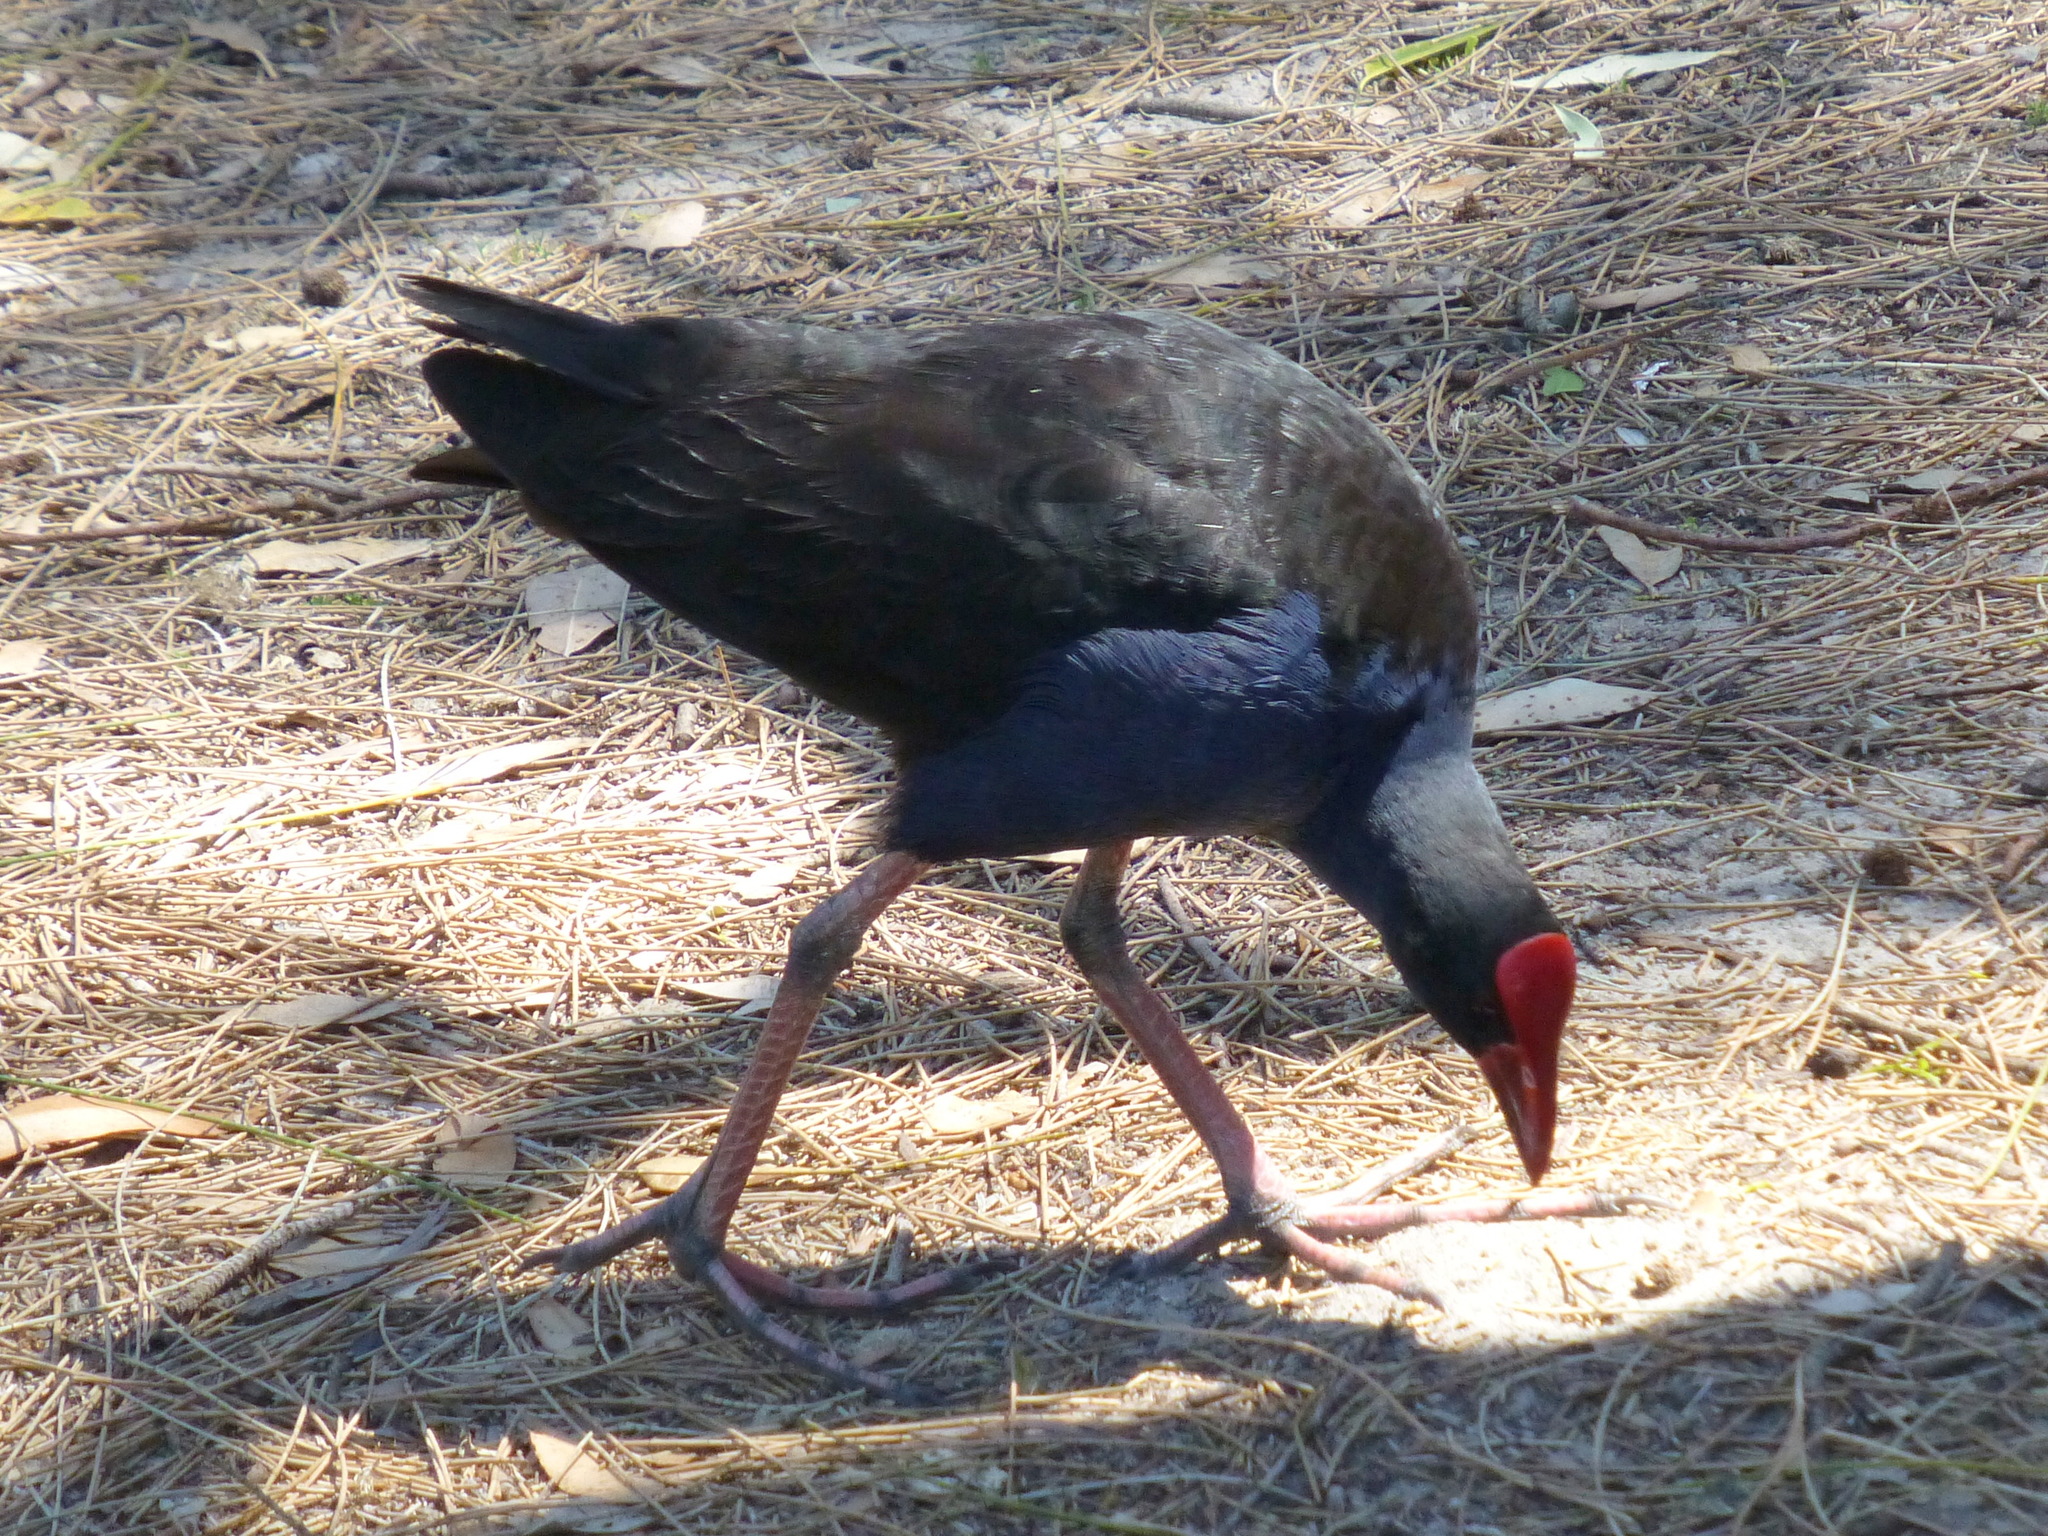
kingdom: Animalia
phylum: Chordata
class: Aves
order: Gruiformes
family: Rallidae
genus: Porphyrio
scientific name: Porphyrio melanotus
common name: Australasian swamphen
